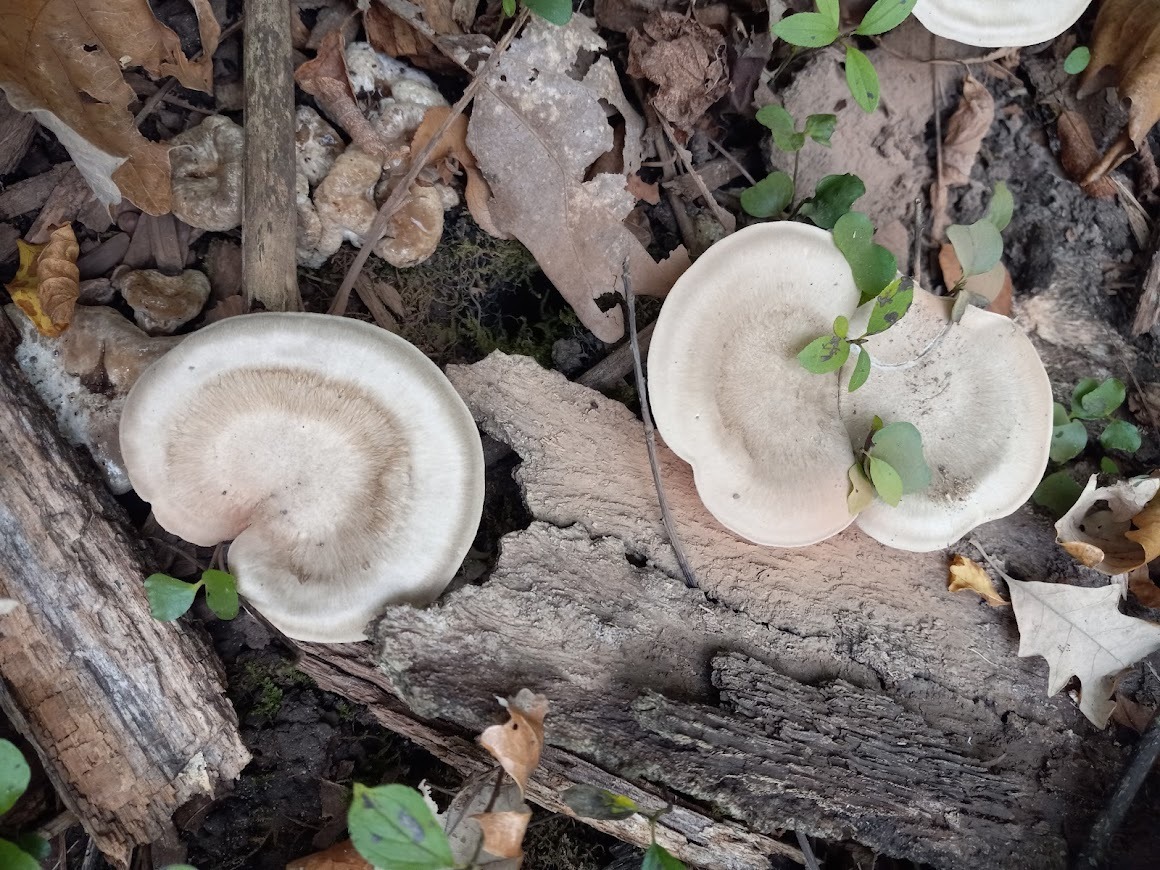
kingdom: Fungi
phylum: Basidiomycota
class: Agaricomycetes
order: Agaricales
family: Entolomataceae
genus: Entoloma
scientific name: Entoloma abortivum
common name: Aborted entoloma
